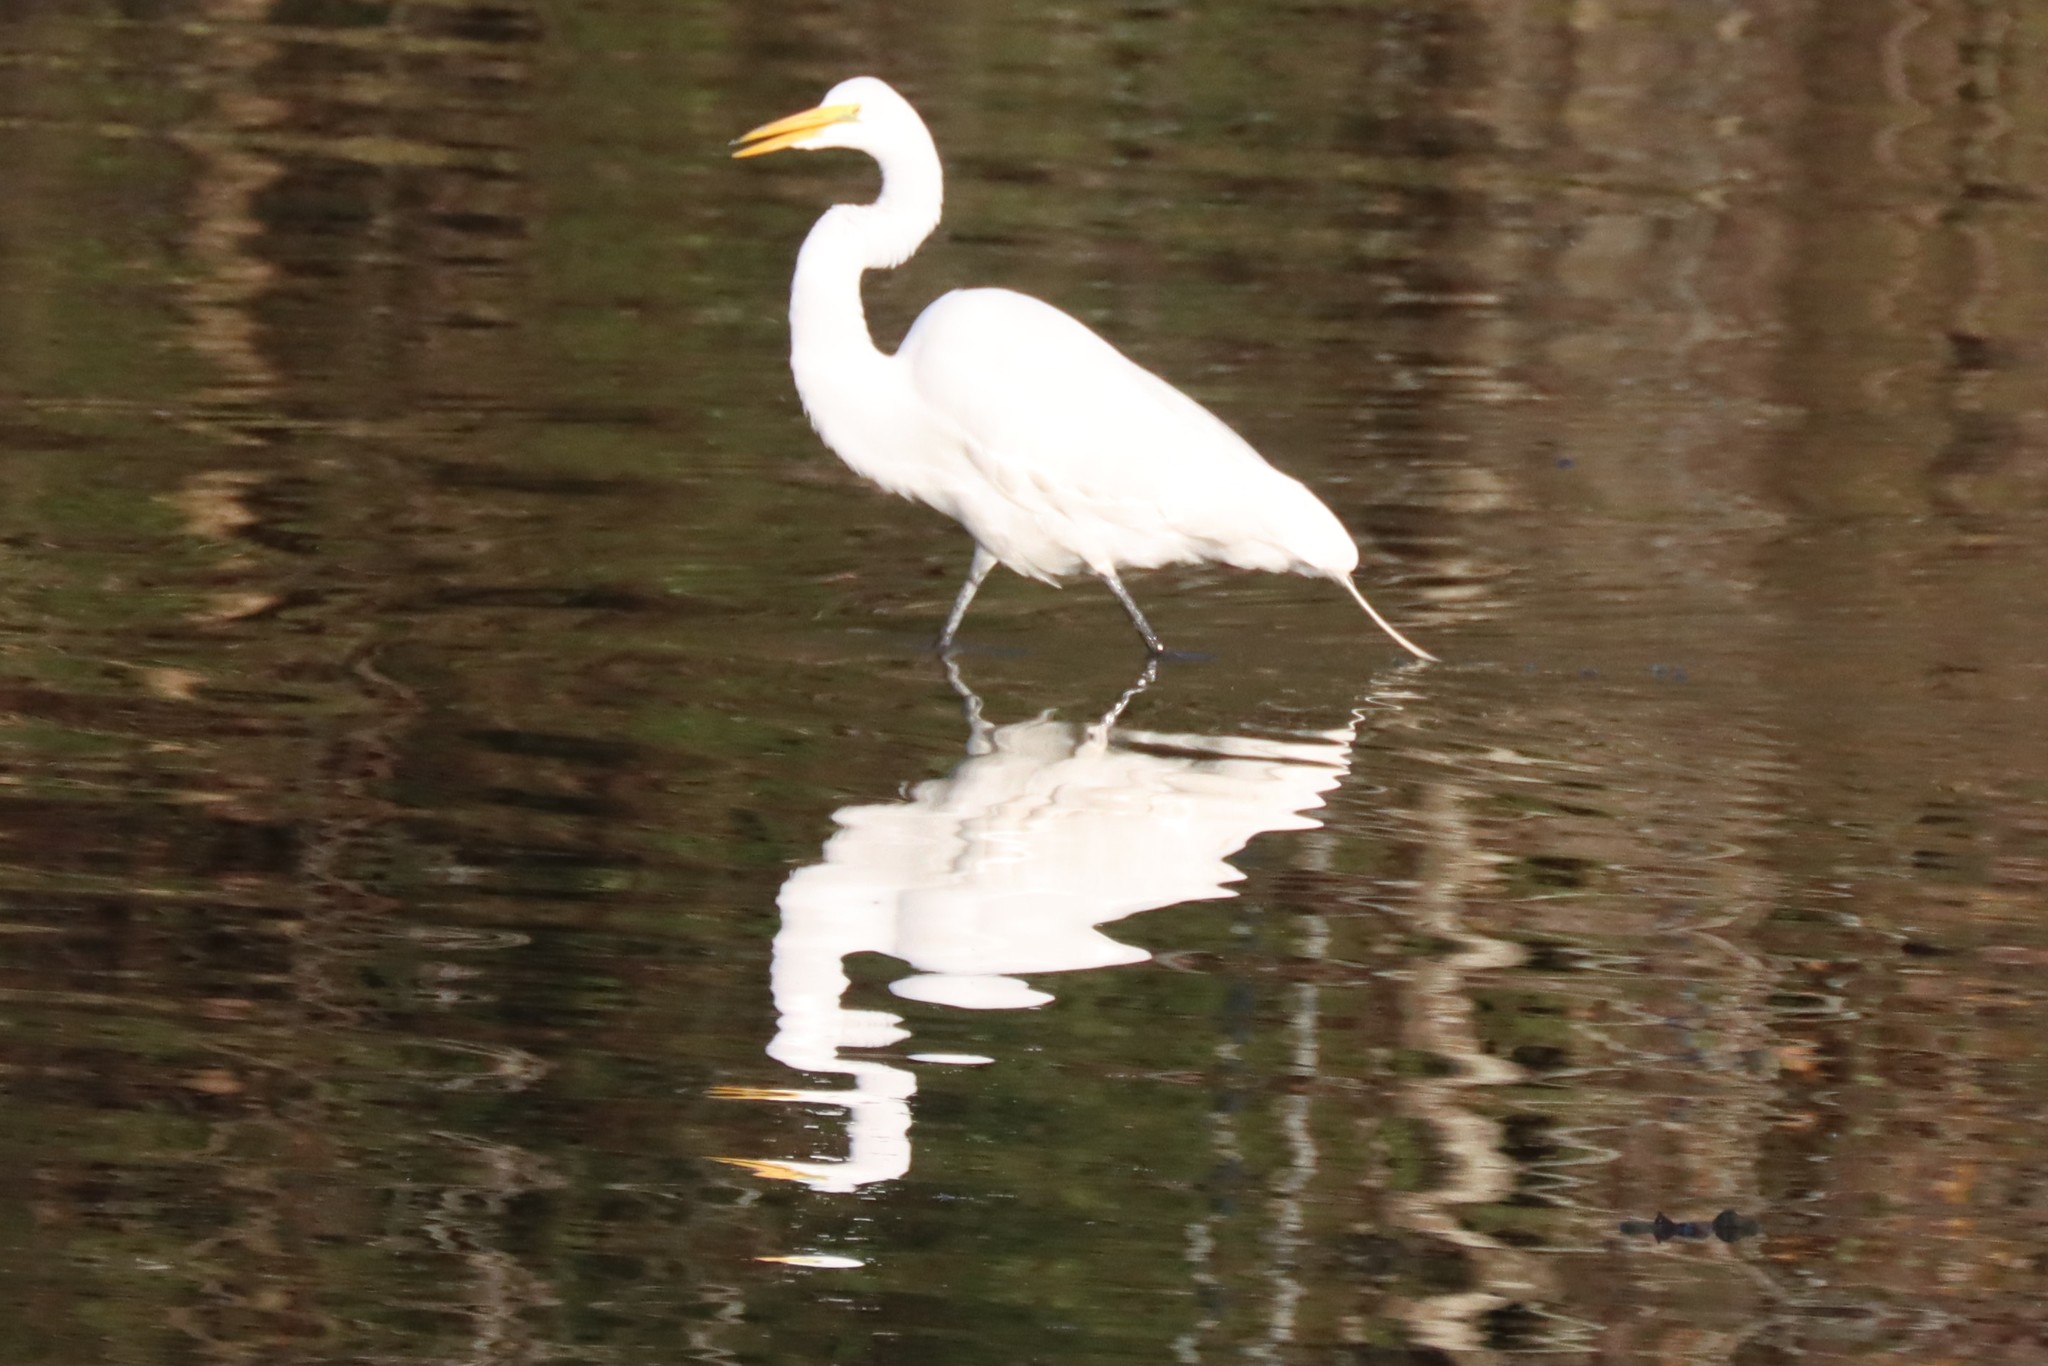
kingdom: Animalia
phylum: Chordata
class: Aves
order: Pelecaniformes
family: Ardeidae
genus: Ardea
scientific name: Ardea alba
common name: Great egret
